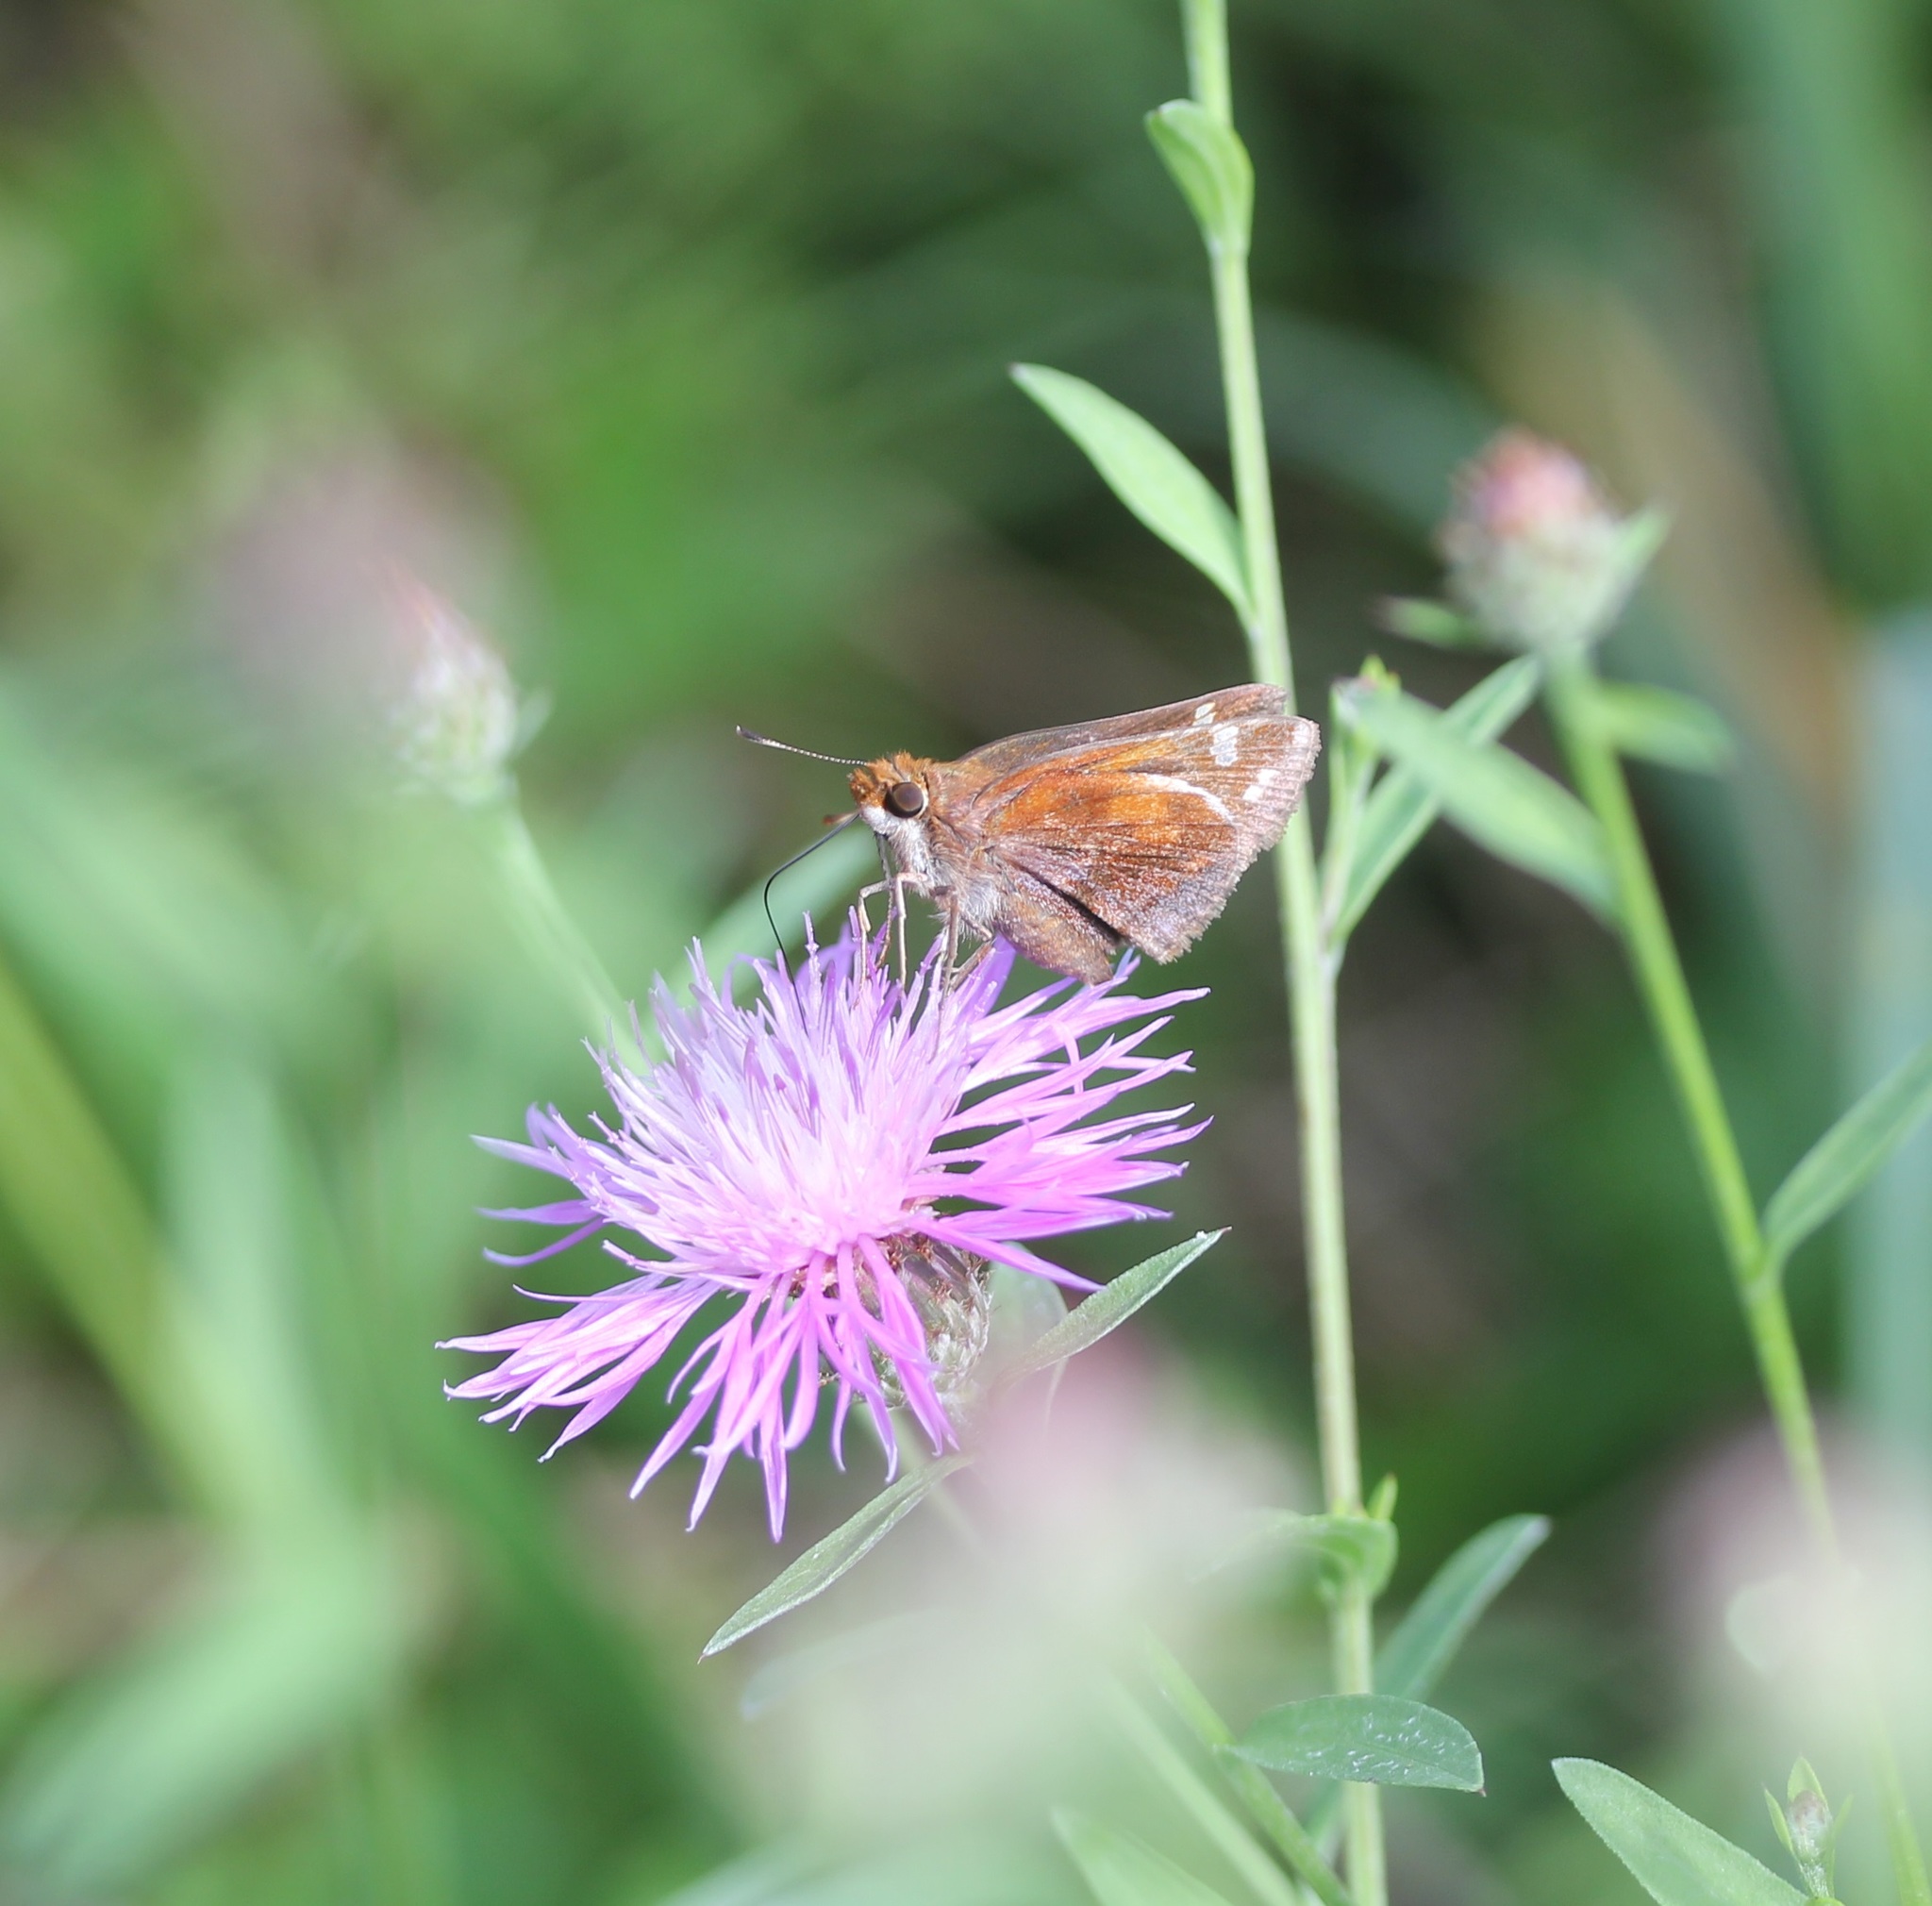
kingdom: Animalia
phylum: Arthropoda
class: Insecta
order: Lepidoptera
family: Hesperiidae
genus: Lon
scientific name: Lon zabulon
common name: Zabulon skipper
